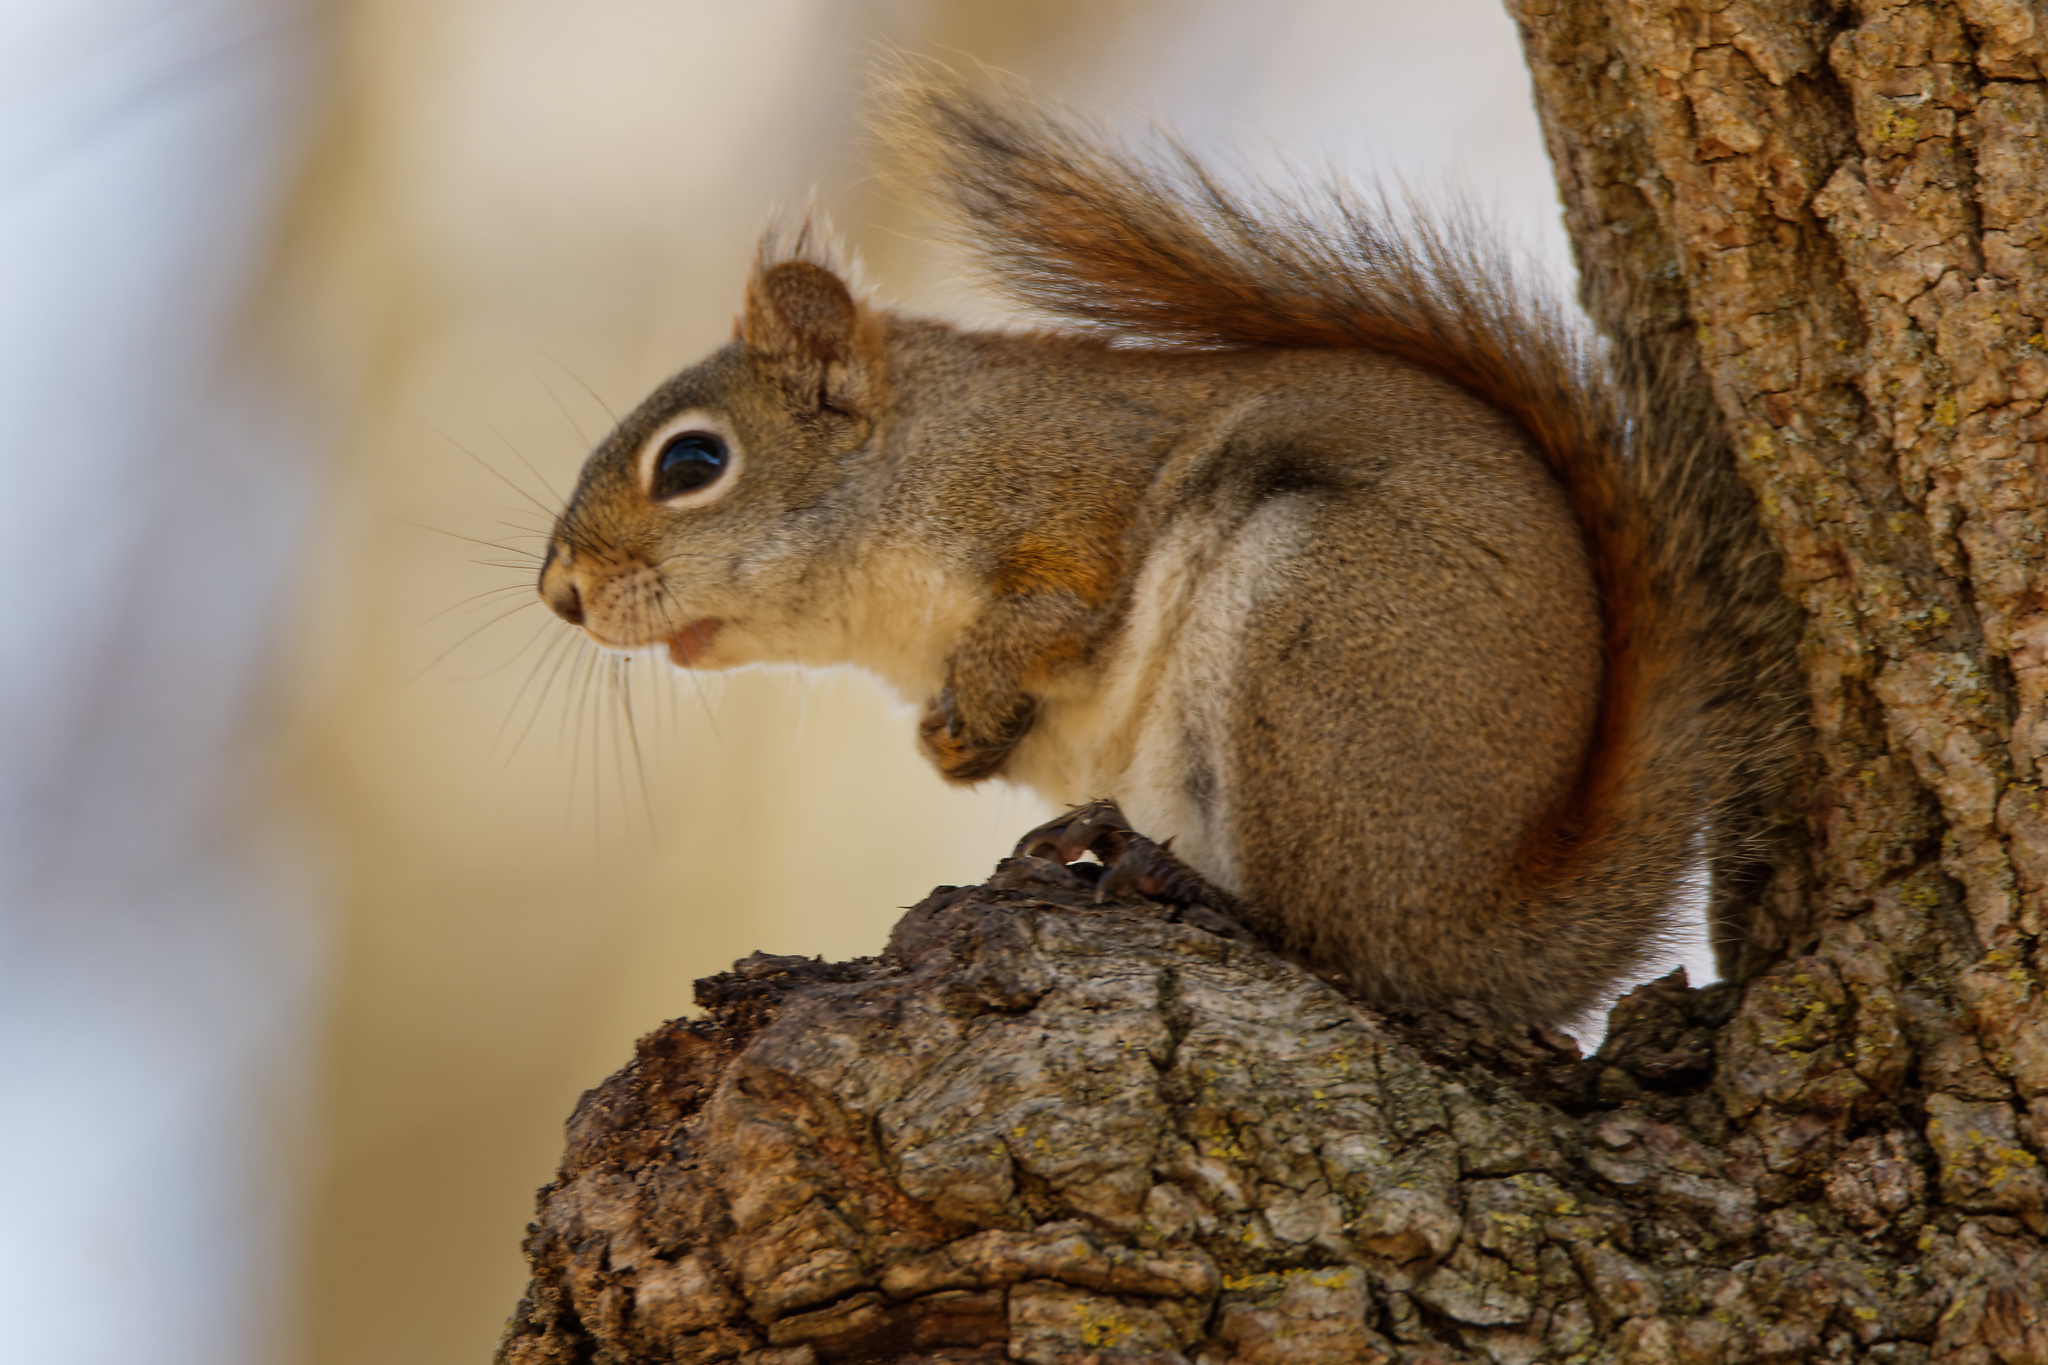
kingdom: Animalia
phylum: Chordata
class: Mammalia
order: Rodentia
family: Sciuridae
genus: Tamiasciurus
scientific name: Tamiasciurus hudsonicus
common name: Red squirrel
